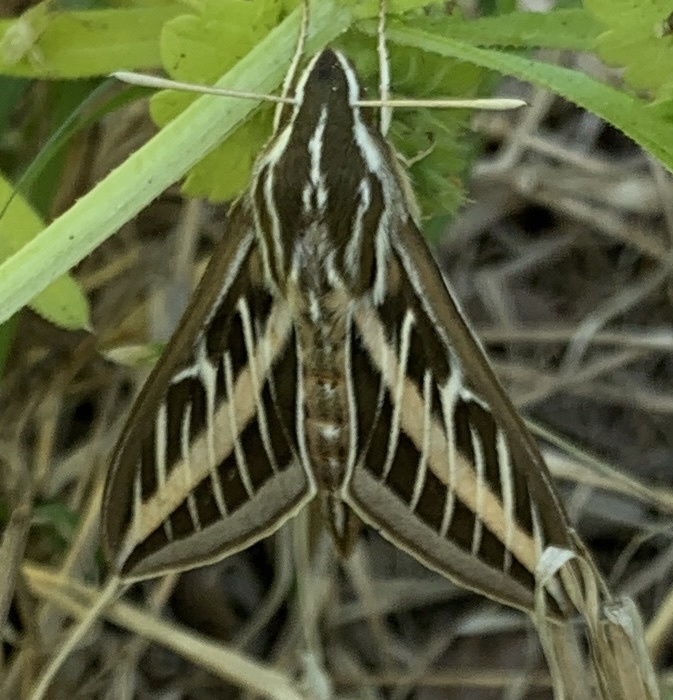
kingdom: Animalia
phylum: Arthropoda
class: Insecta
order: Lepidoptera
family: Sphingidae
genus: Hyles
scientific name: Hyles lineata
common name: White-lined sphinx
